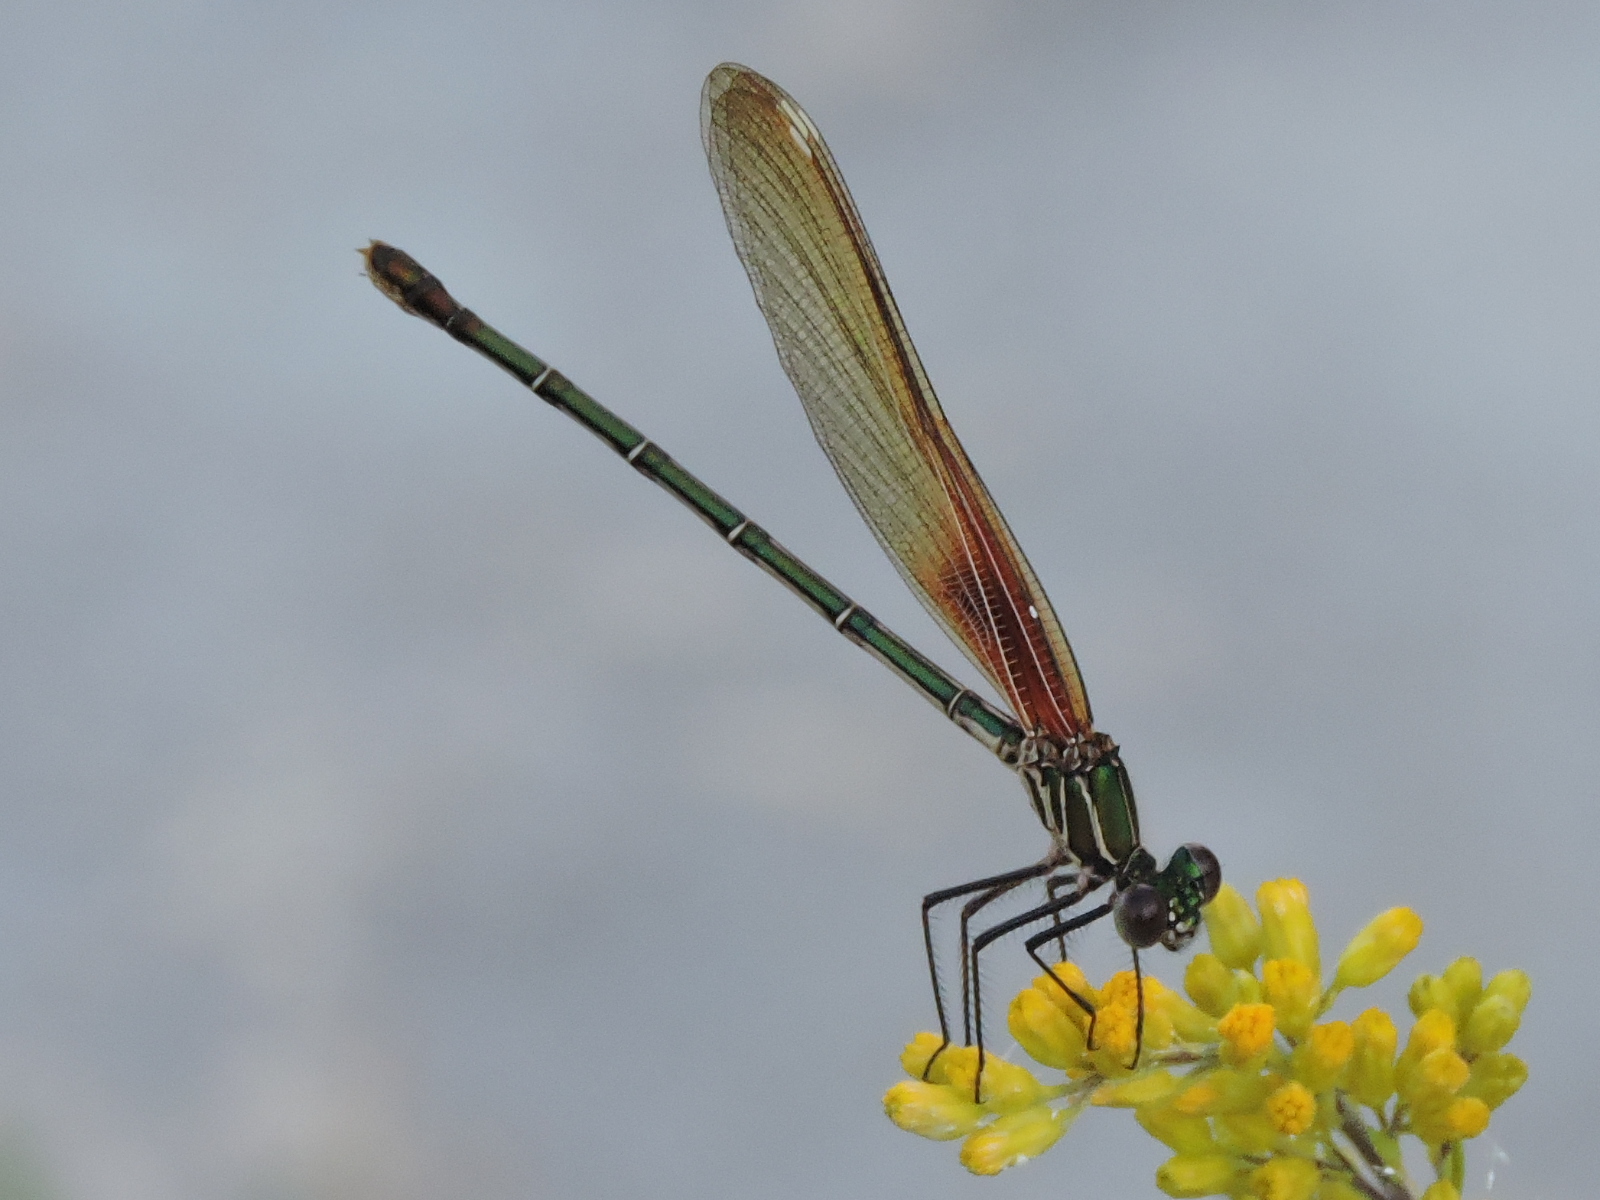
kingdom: Animalia
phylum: Arthropoda
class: Insecta
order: Odonata
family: Calopterygidae
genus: Hetaerina
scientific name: Hetaerina americana
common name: American rubyspot
